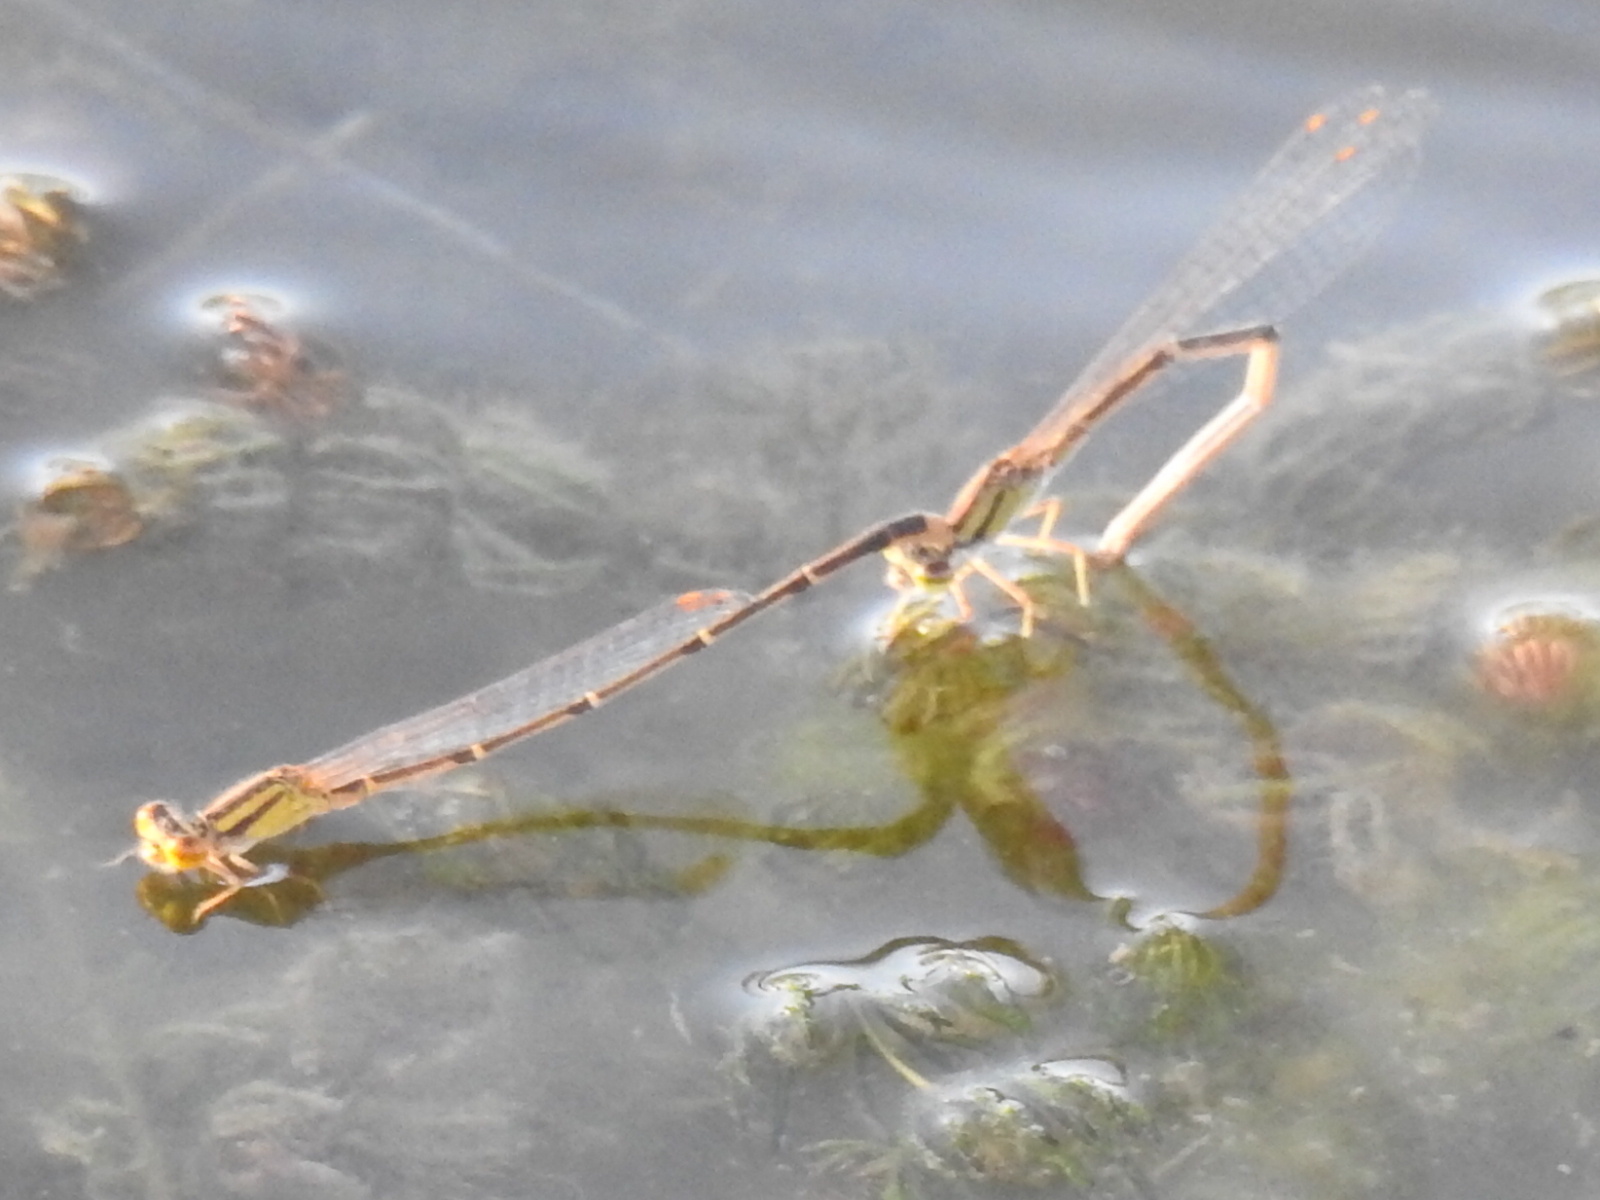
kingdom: Animalia
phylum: Arthropoda
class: Insecta
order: Odonata
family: Coenagrionidae
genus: Enallagma
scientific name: Enallagma signatum
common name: Orange bluet
